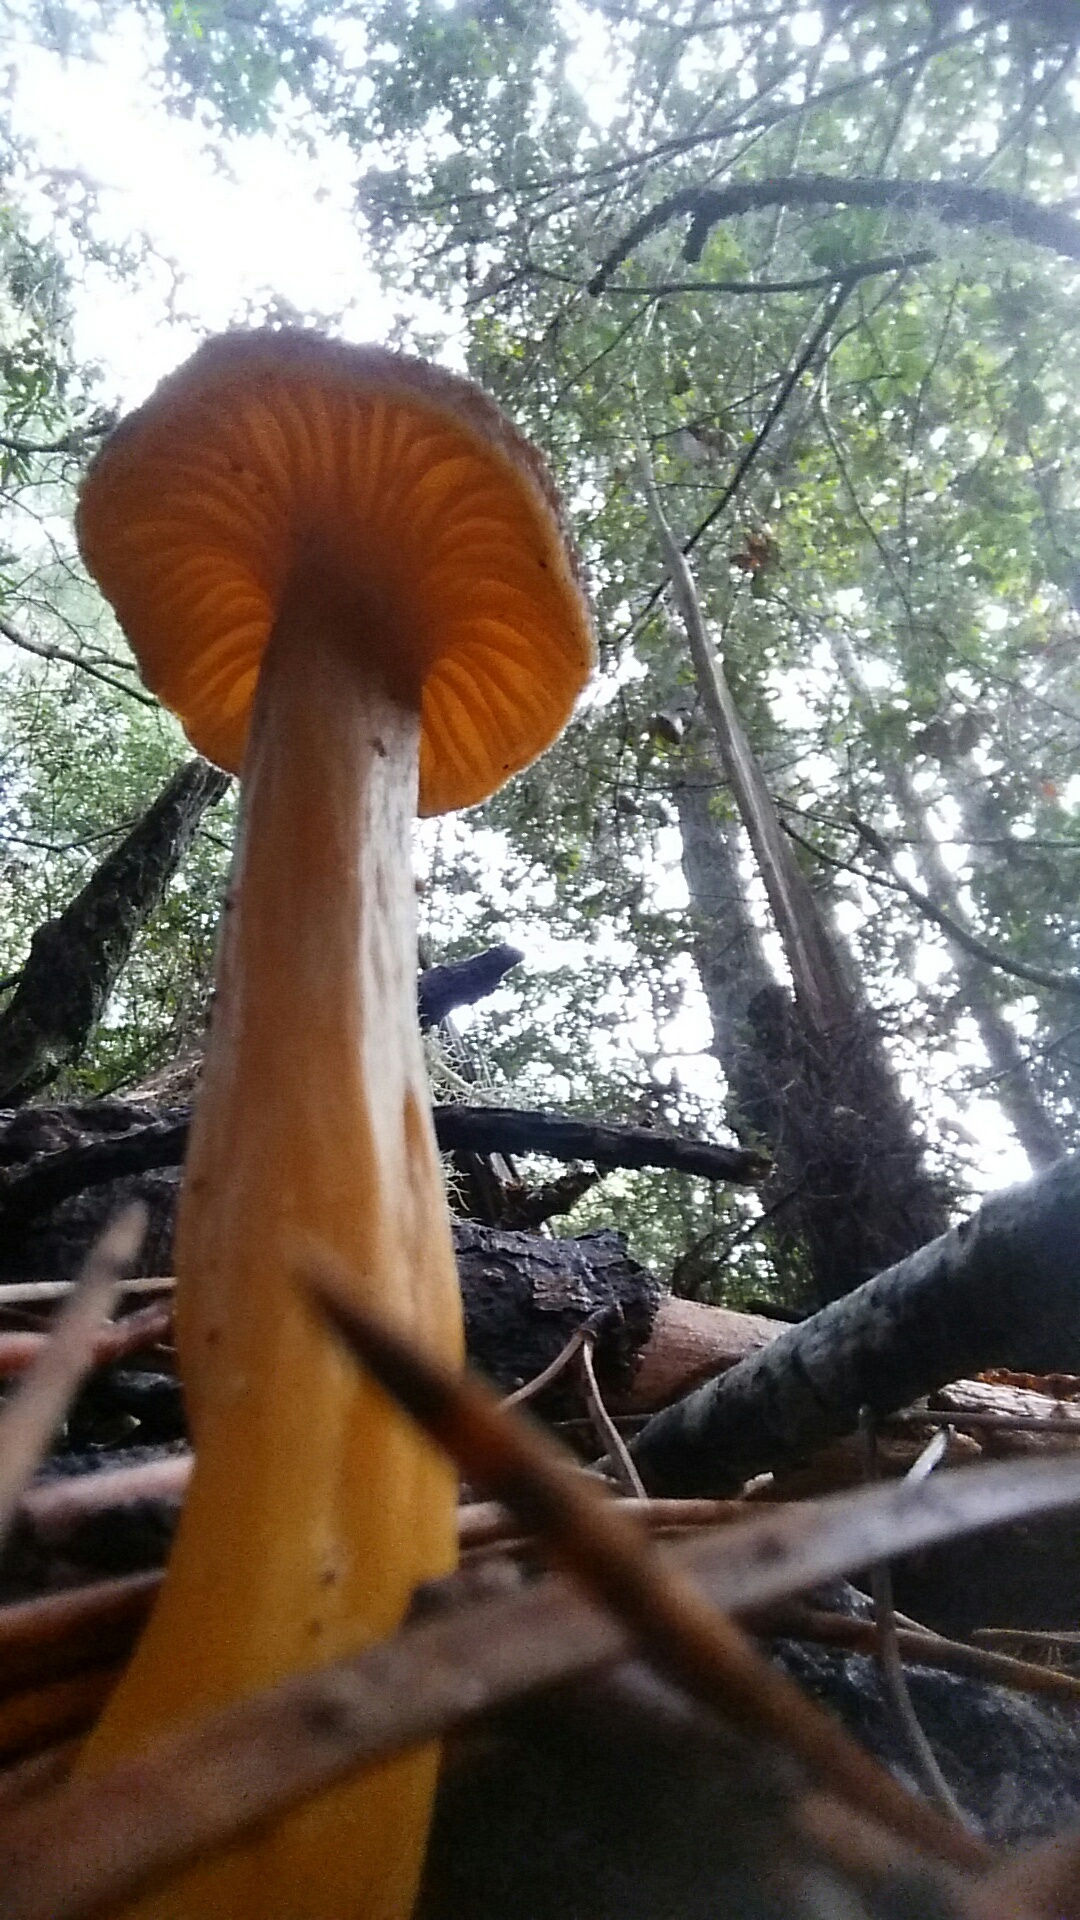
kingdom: Fungi
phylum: Basidiomycota
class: Agaricomycetes
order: Cantharellales
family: Hydnaceae
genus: Craterellus
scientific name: Craterellus tubaeformis
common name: Yellowfoot
